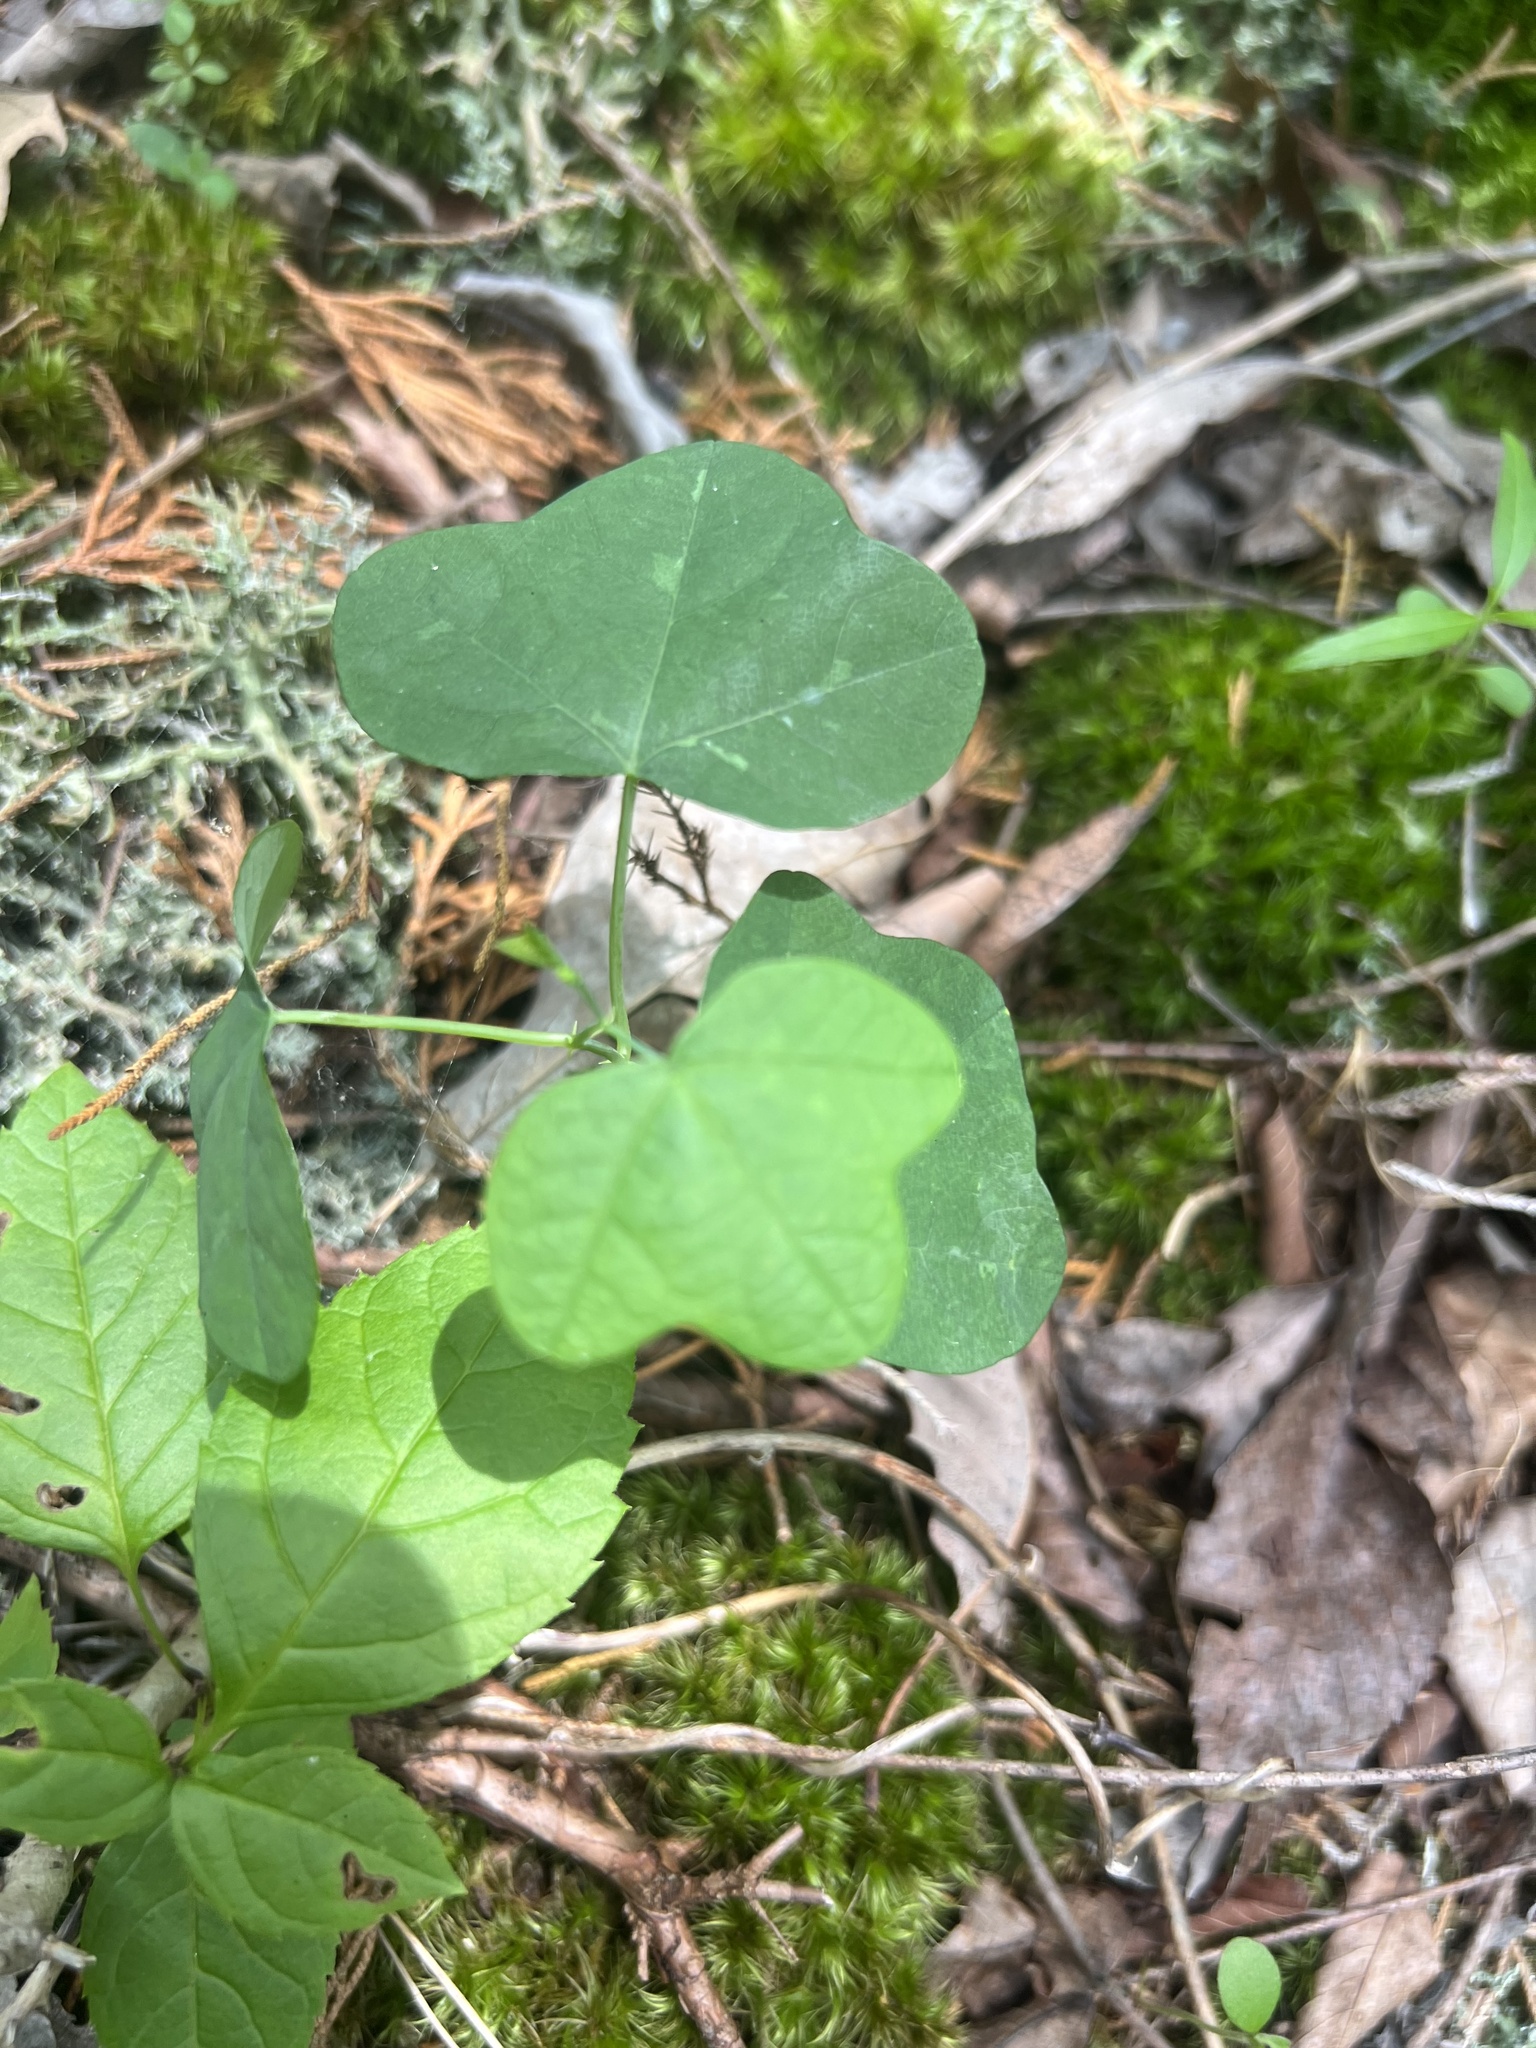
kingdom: Plantae
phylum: Tracheophyta
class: Magnoliopsida
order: Malpighiales
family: Passifloraceae
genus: Passiflora
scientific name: Passiflora lutea
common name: Yellow passionflower
